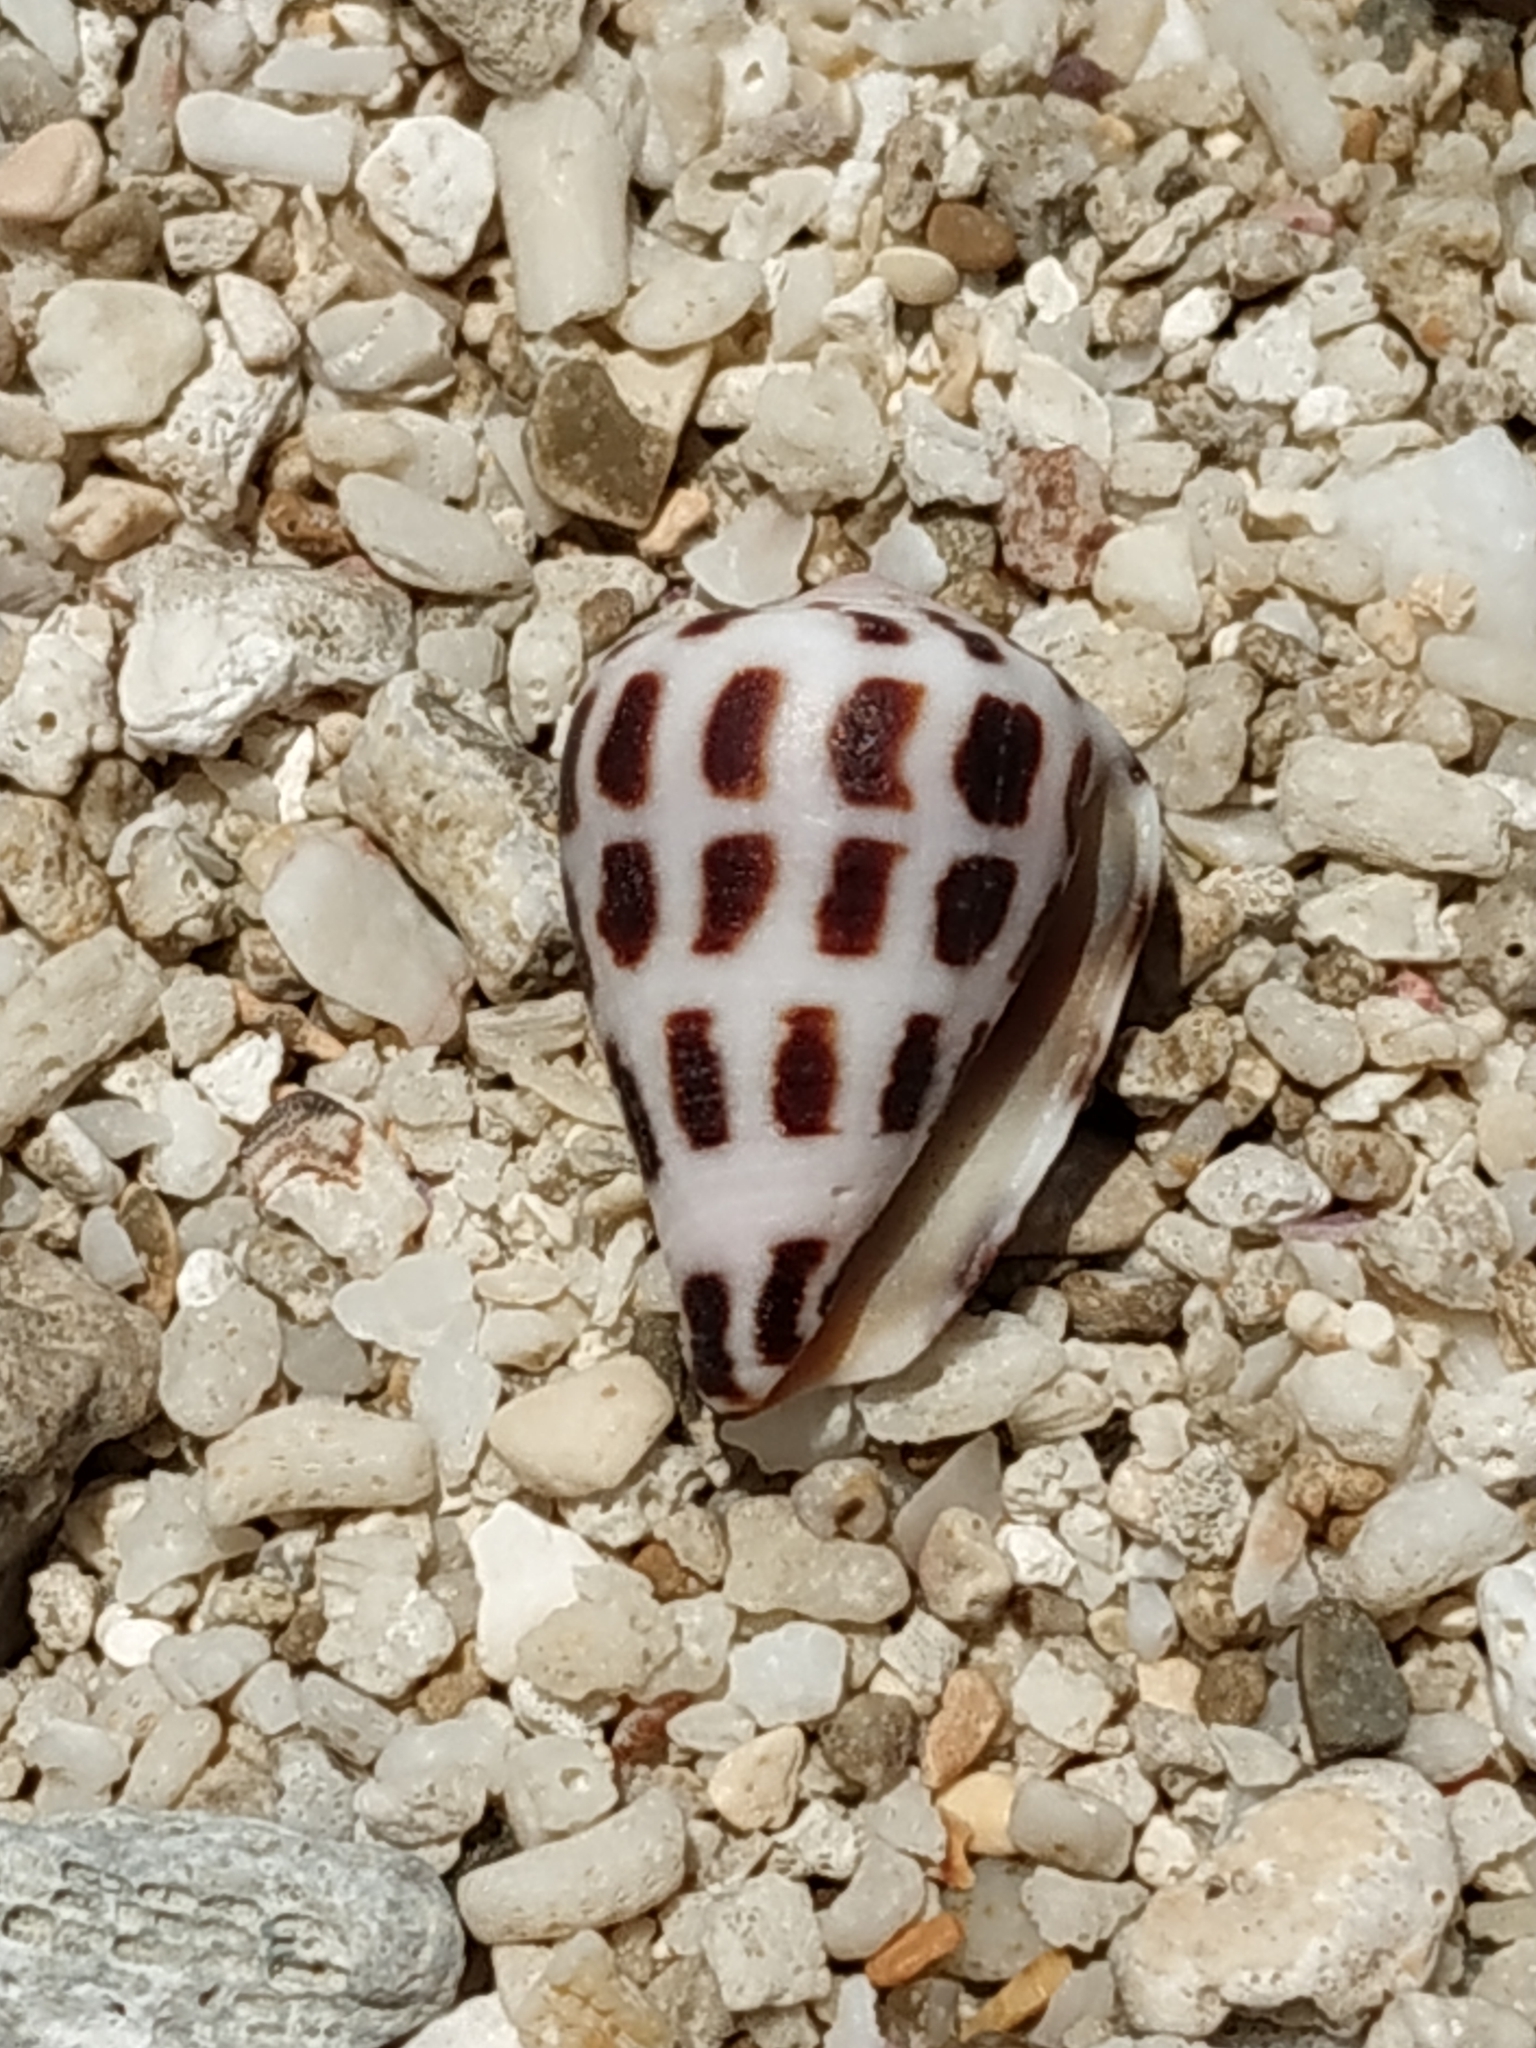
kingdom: Animalia
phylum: Mollusca
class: Gastropoda
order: Neogastropoda
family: Conidae
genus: Conus
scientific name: Conus ebraeus
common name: Hebrew cone
